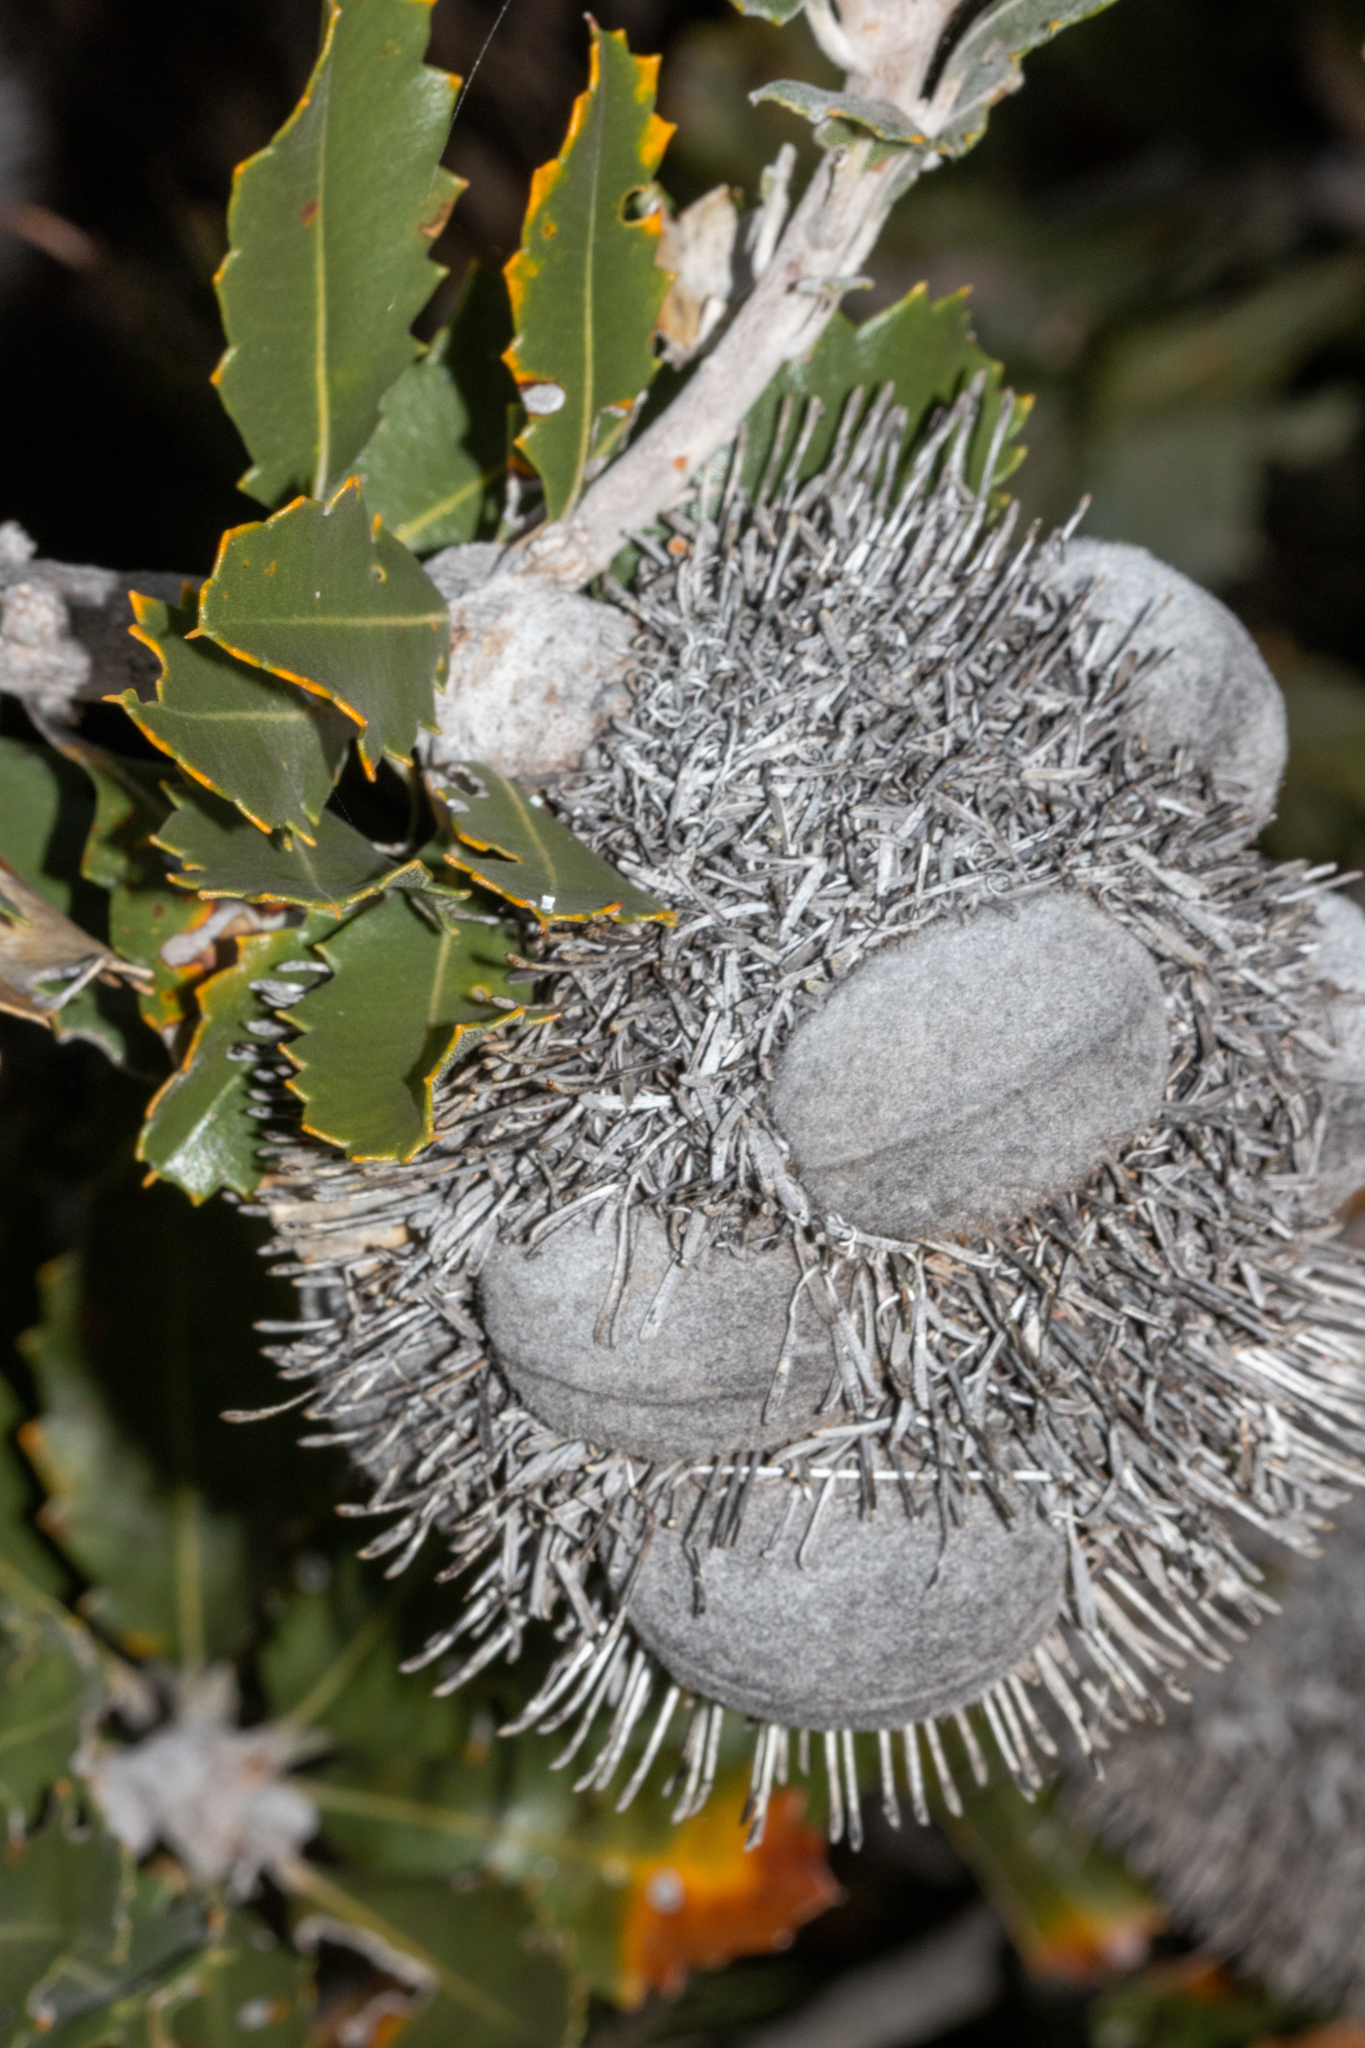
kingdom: Plantae
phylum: Tracheophyta
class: Magnoliopsida
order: Proteales
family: Proteaceae
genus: Banksia
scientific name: Banksia lemanniana
